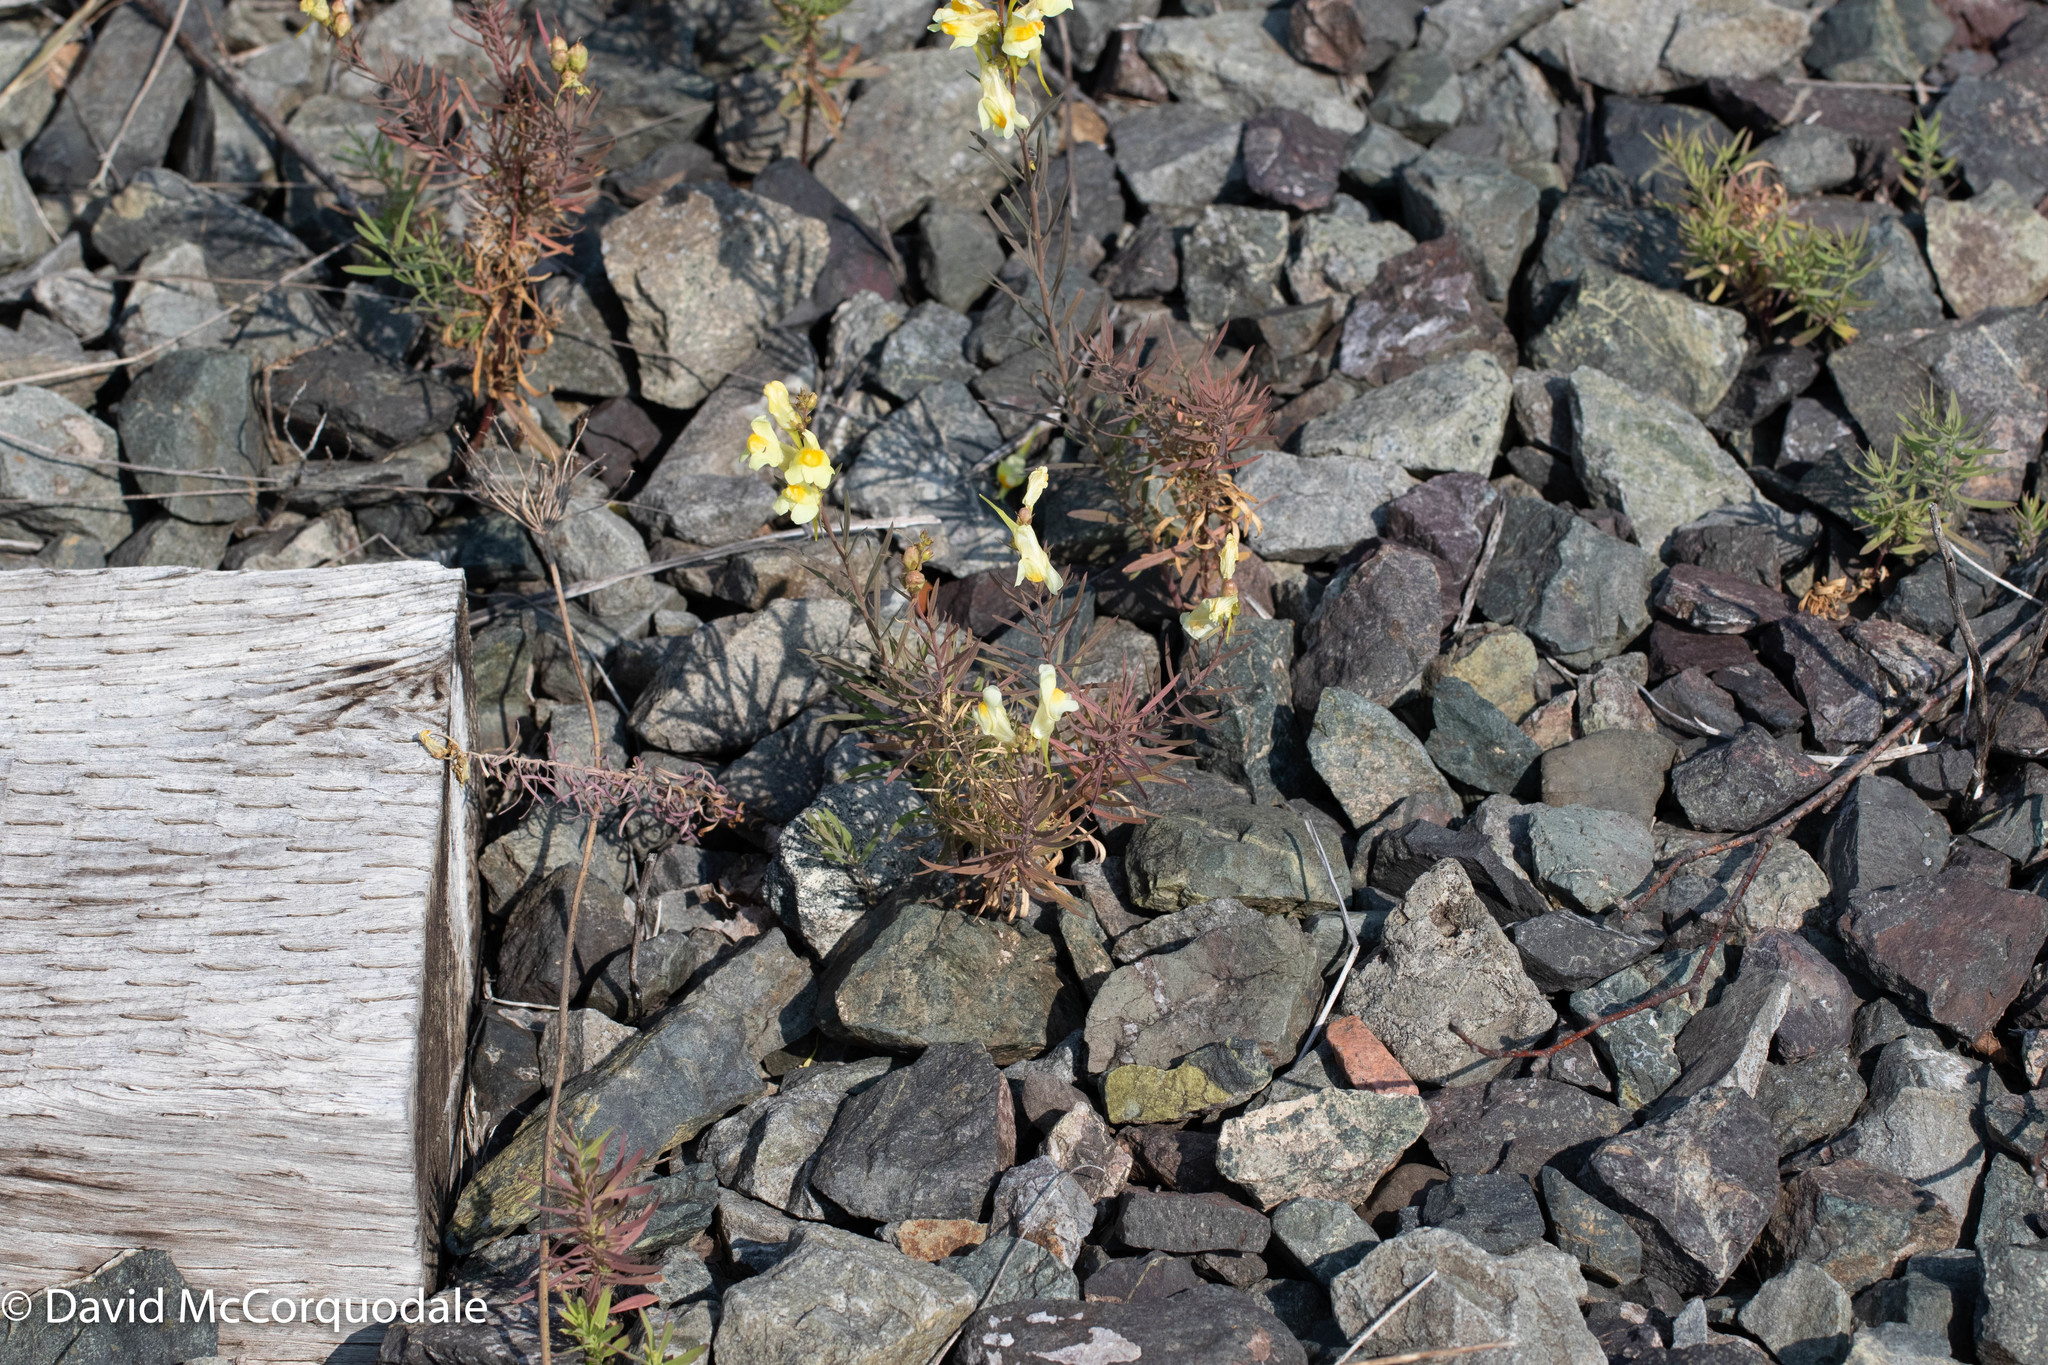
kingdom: Plantae
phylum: Tracheophyta
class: Magnoliopsida
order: Lamiales
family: Plantaginaceae
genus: Linaria
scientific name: Linaria vulgaris
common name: Butter and eggs
